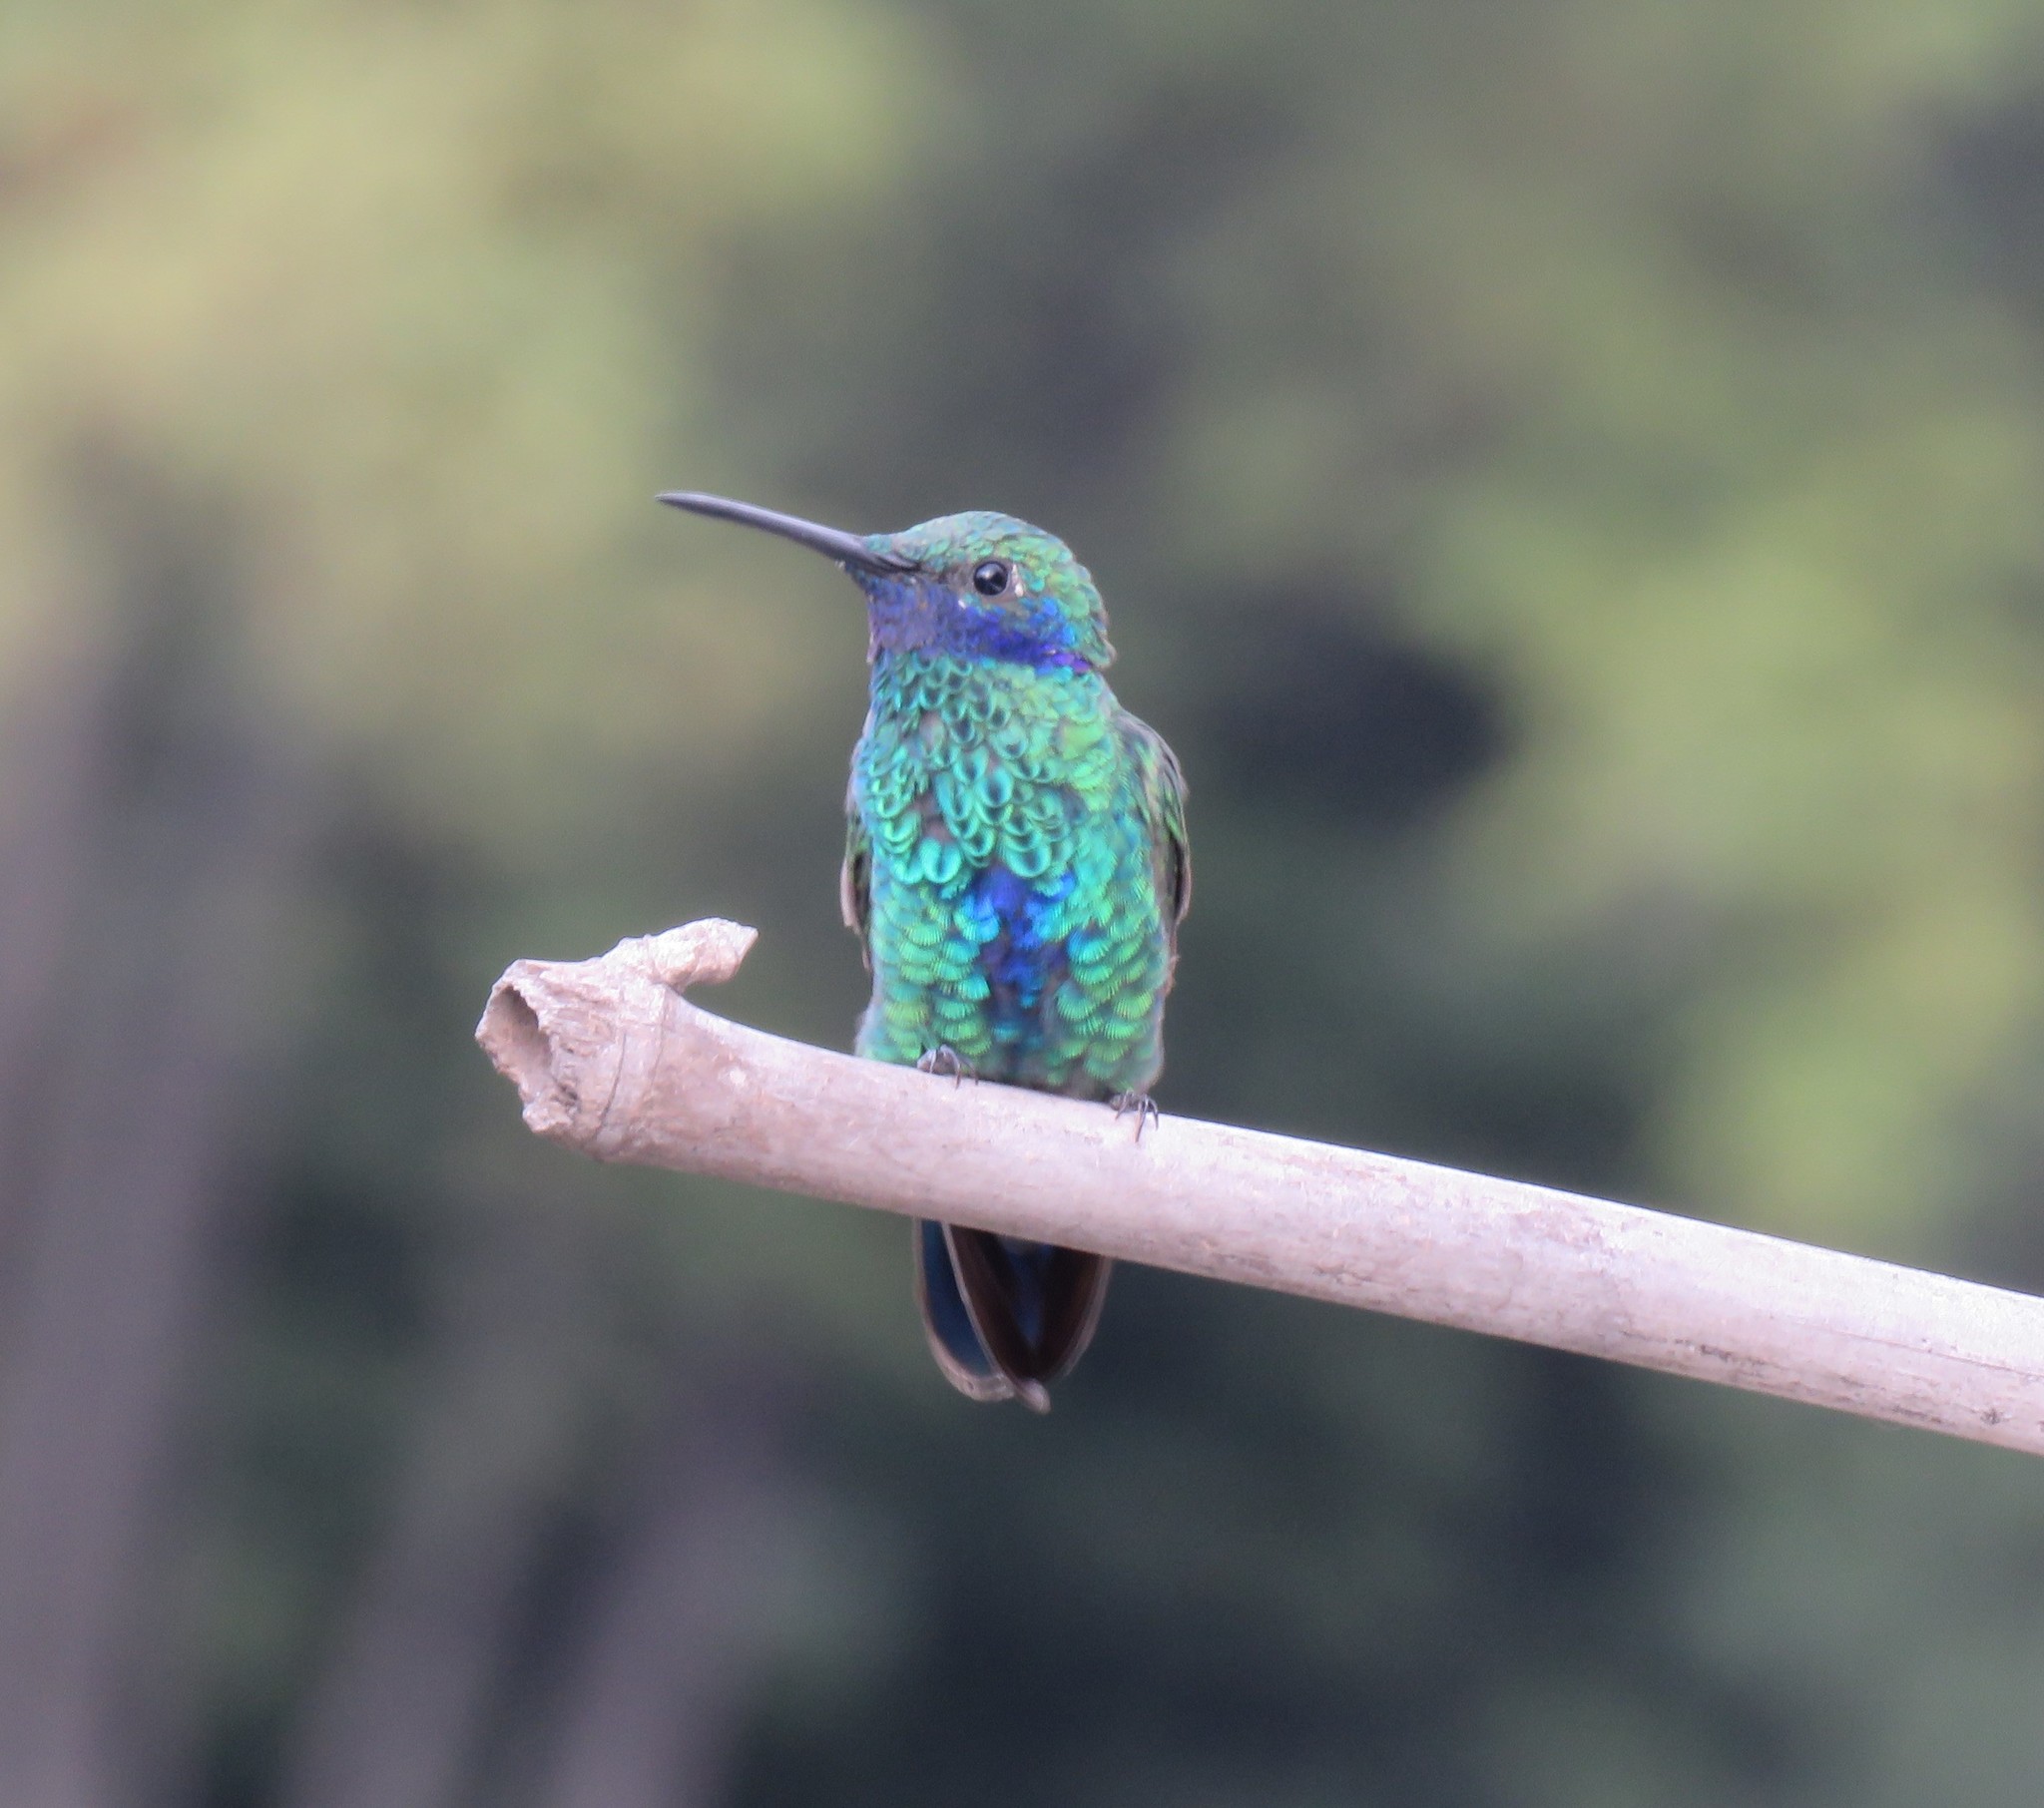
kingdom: Animalia
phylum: Chordata
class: Aves
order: Apodiformes
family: Trochilidae
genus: Colibri
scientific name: Colibri coruscans
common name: Sparkling violetear
